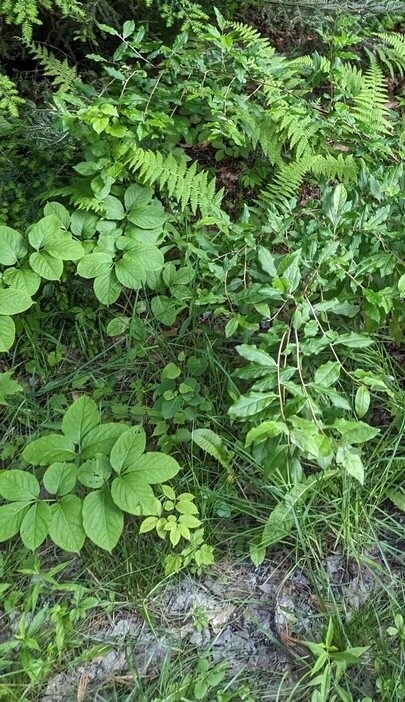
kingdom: Plantae
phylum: Tracheophyta
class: Magnoliopsida
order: Apiales
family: Araliaceae
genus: Aralia
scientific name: Aralia nudicaulis
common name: Wild sarsaparilla
